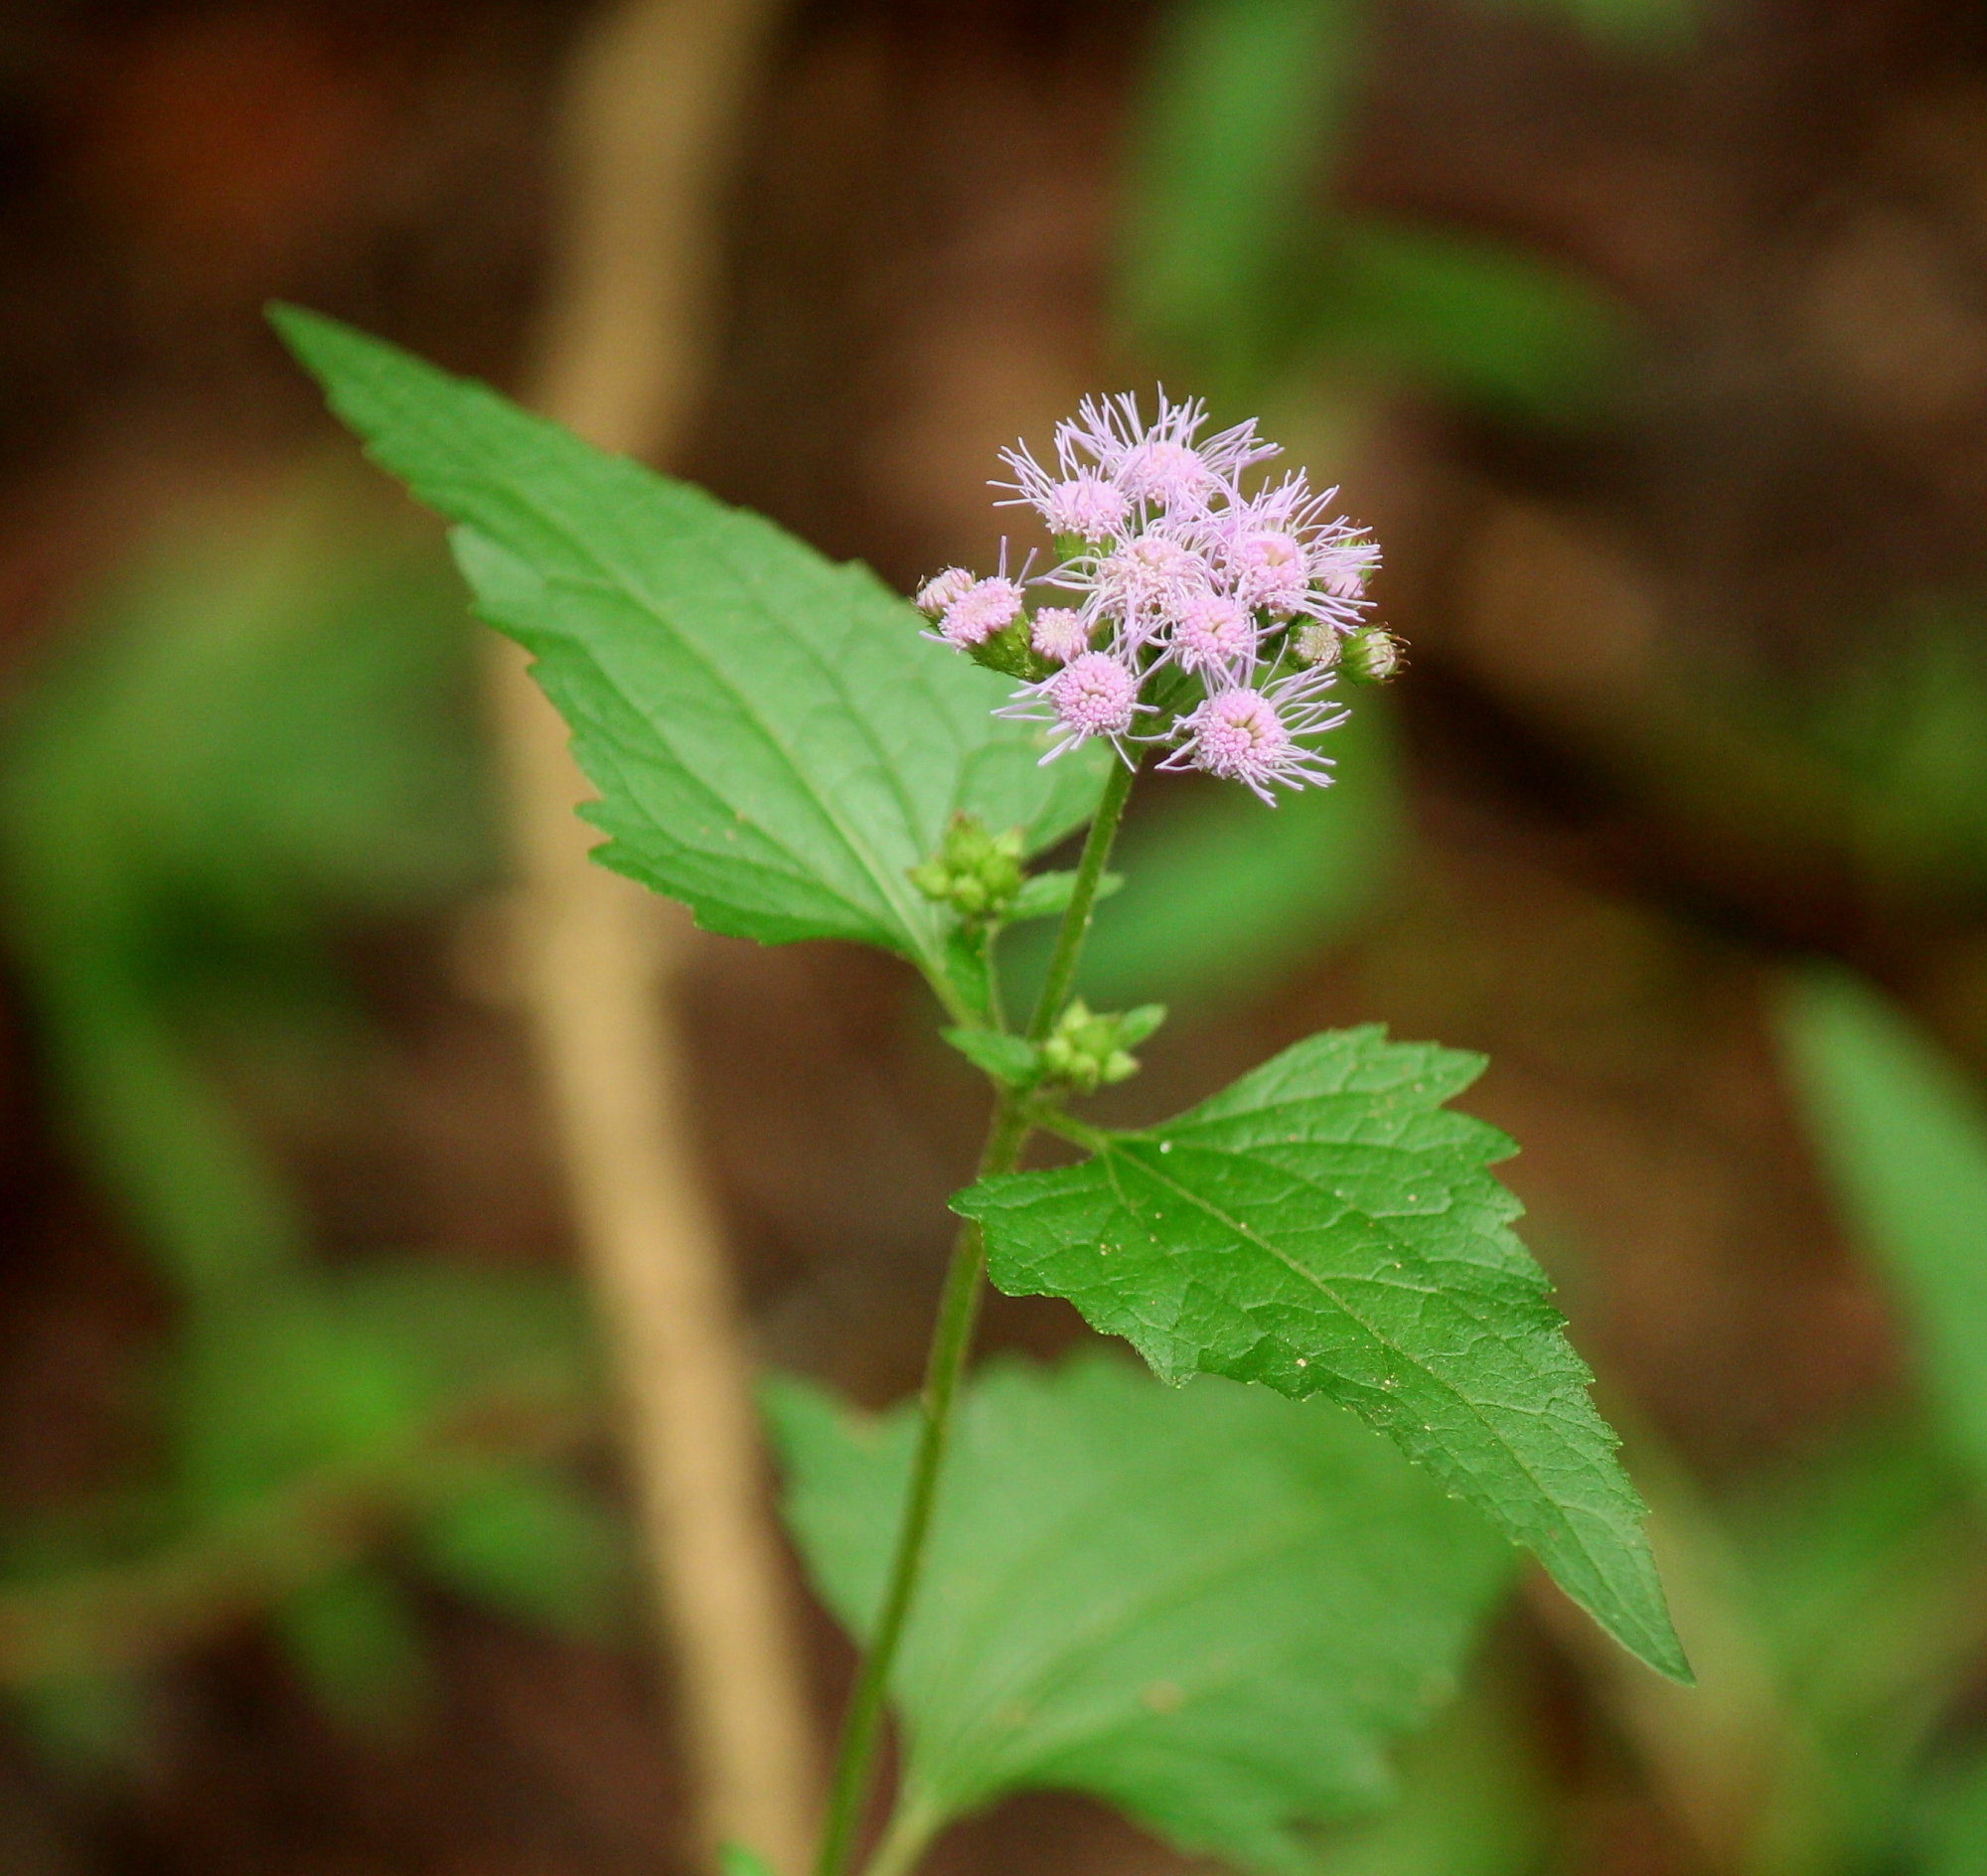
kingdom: Plantae
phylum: Tracheophyta
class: Magnoliopsida
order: Asterales
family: Asteraceae
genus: Conoclinium
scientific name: Conoclinium coelestinum
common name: Blue mistflower
